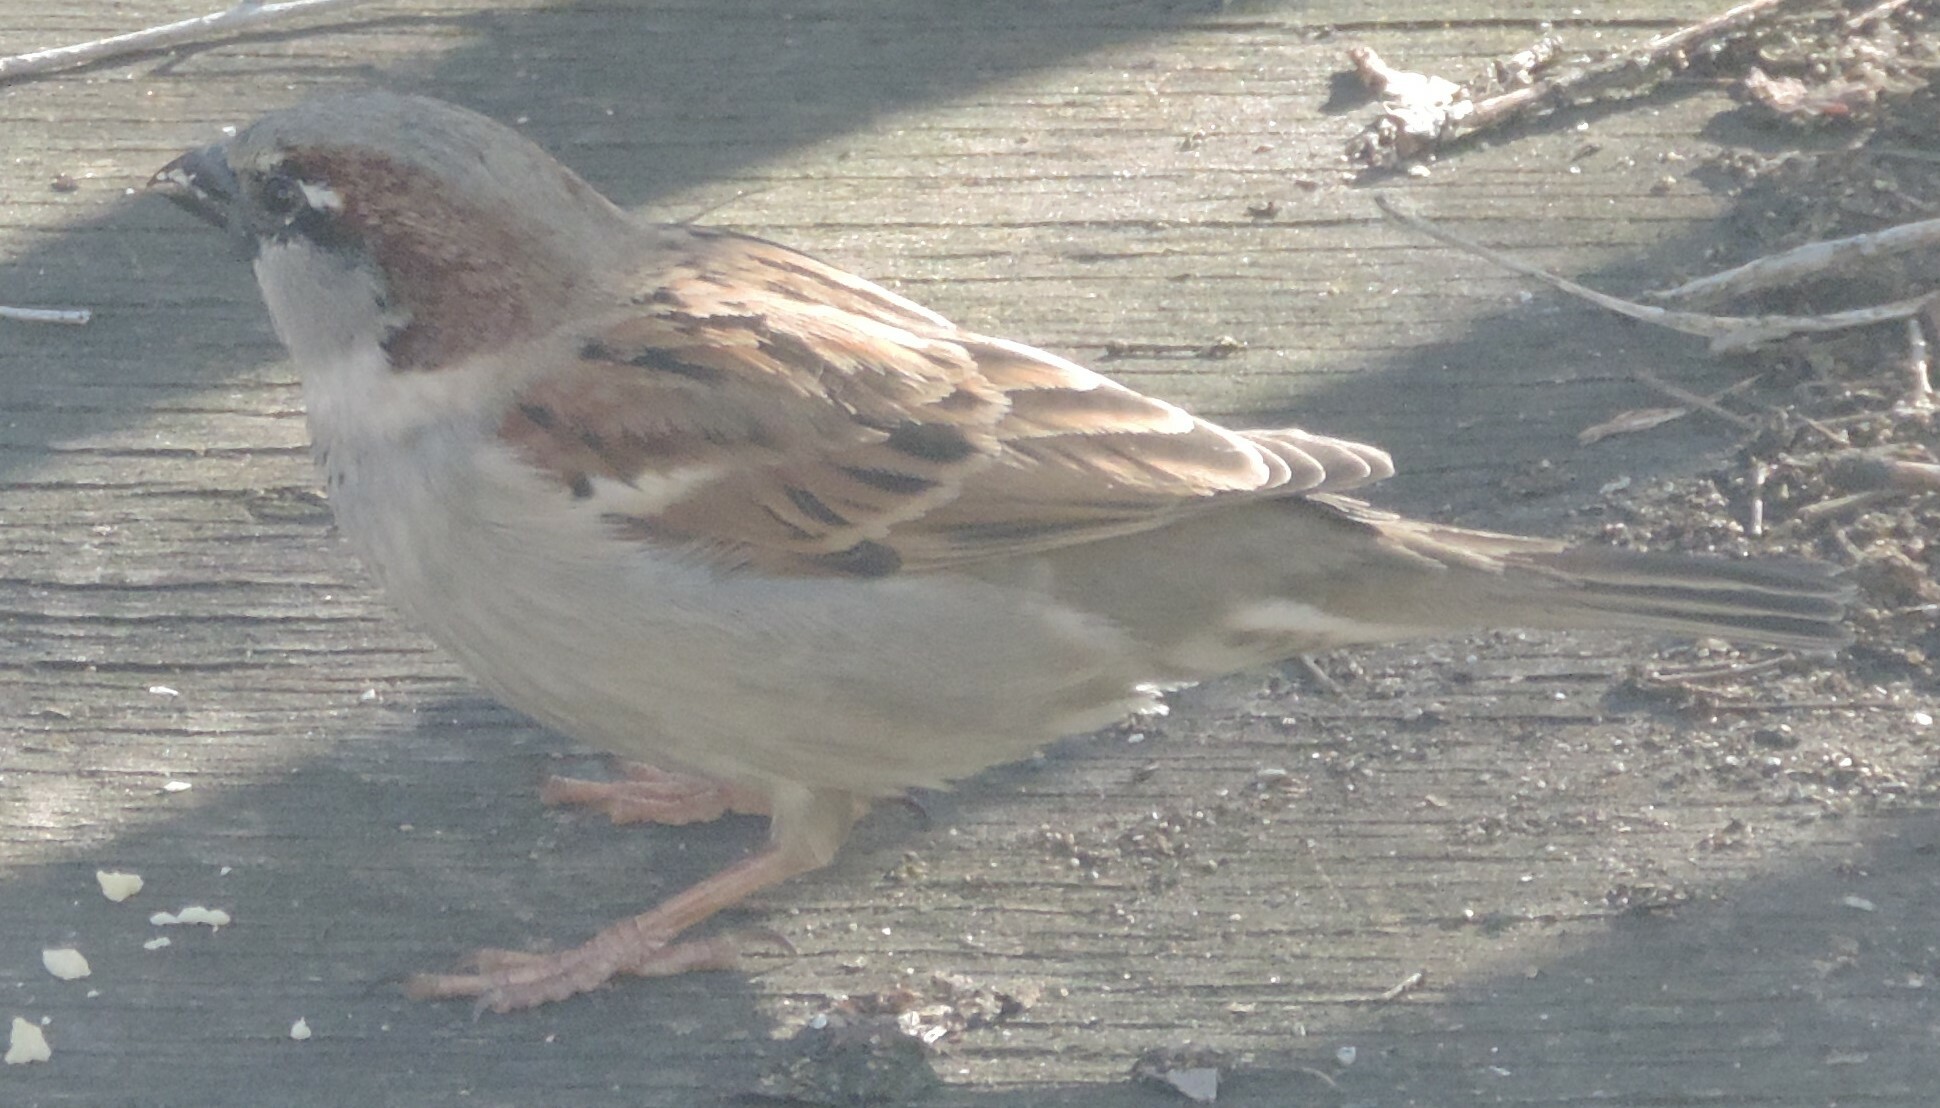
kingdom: Animalia
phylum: Chordata
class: Aves
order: Passeriformes
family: Passeridae
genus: Passer
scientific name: Passer domesticus
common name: House sparrow
